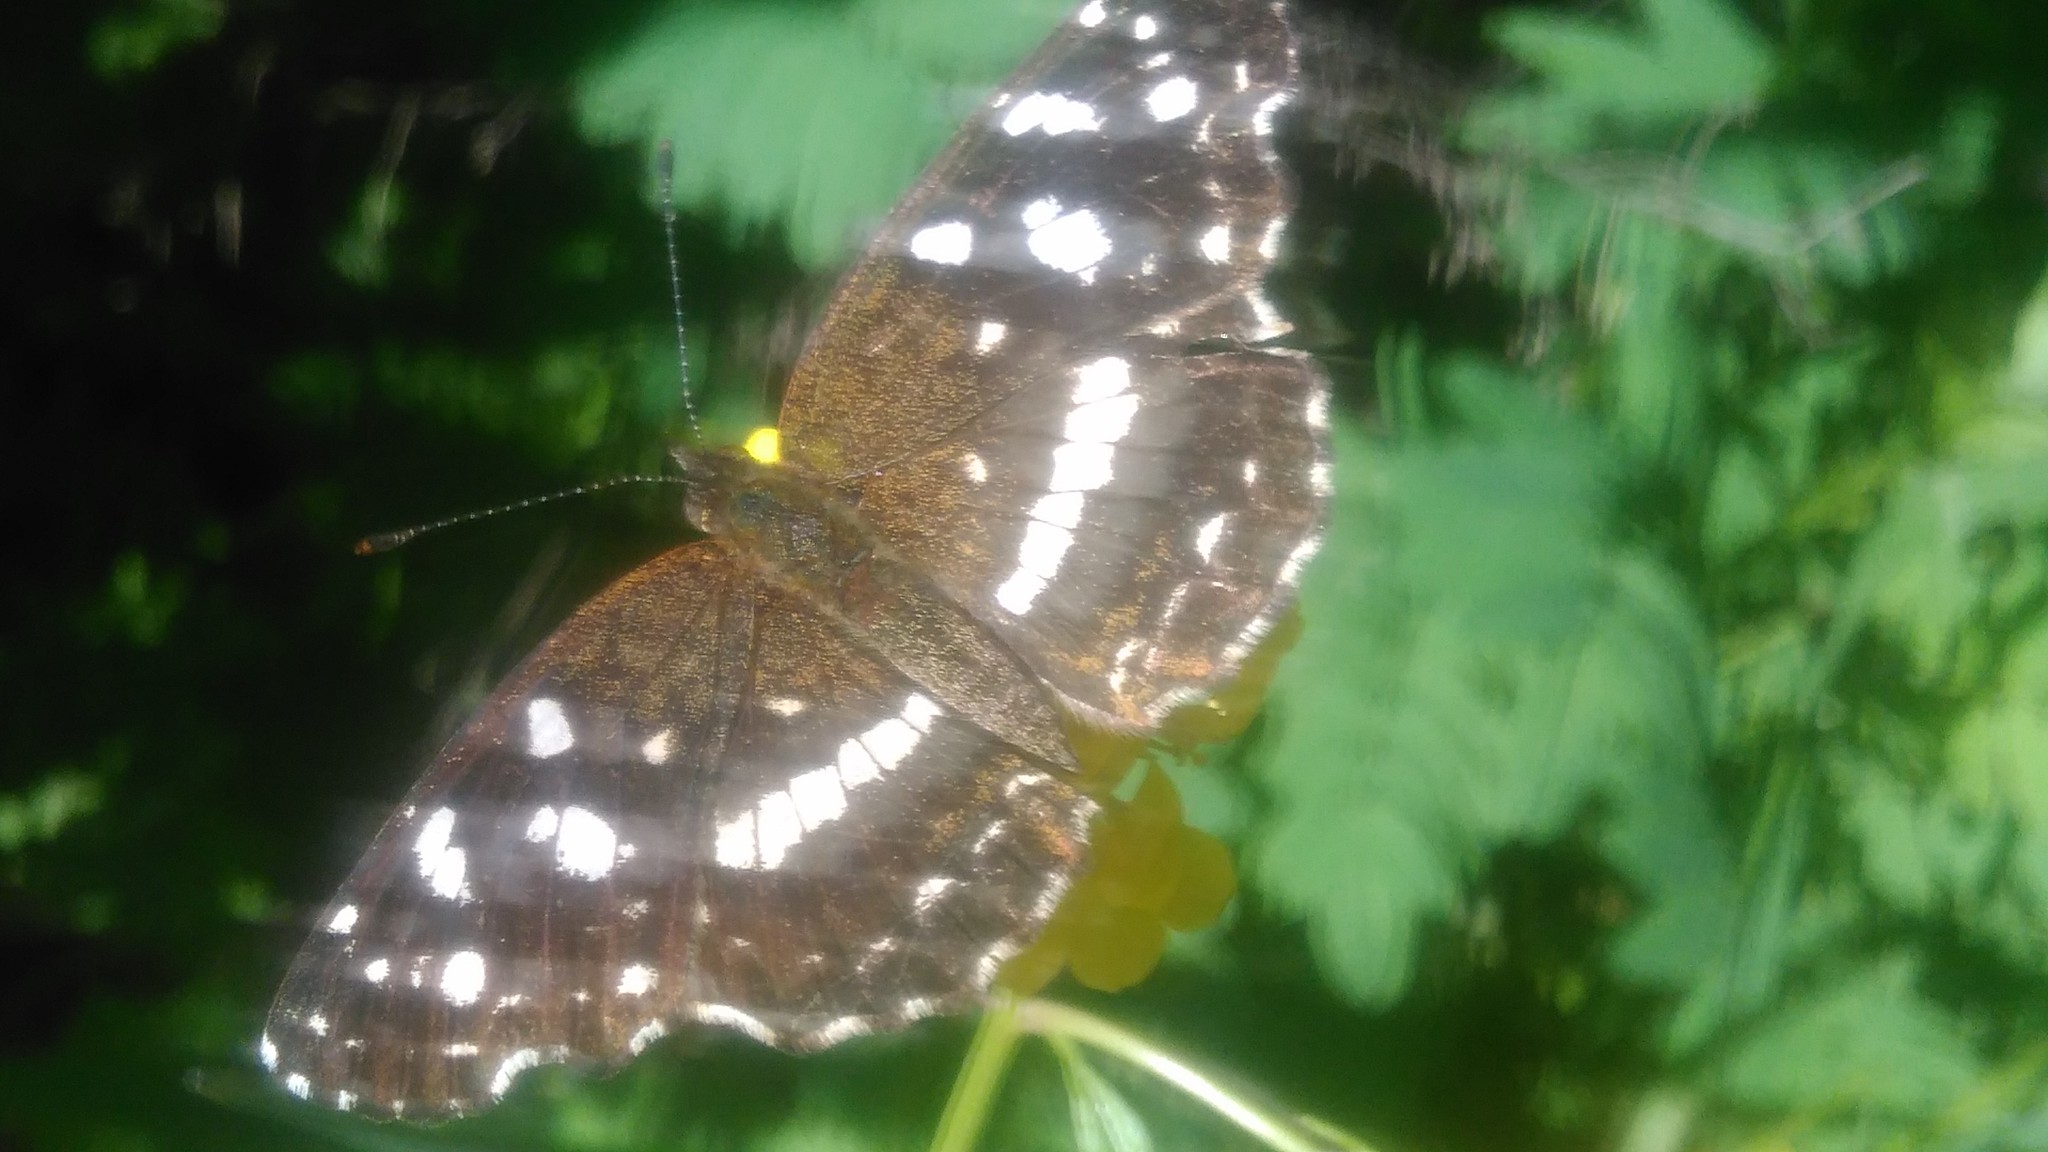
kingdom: Animalia
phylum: Arthropoda
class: Insecta
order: Lepidoptera
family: Nymphalidae
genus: Ortilia
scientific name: Ortilia ithra
